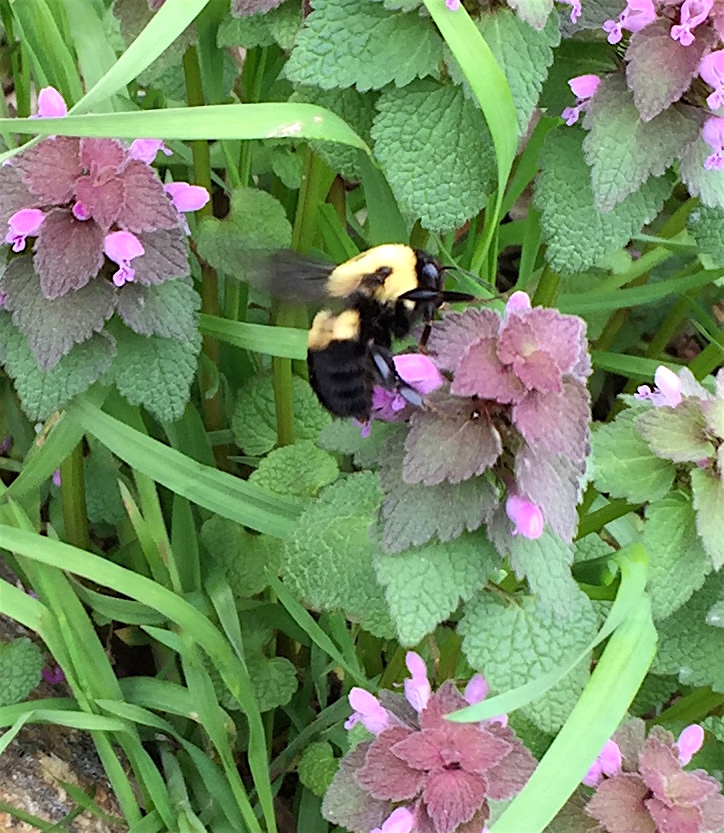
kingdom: Animalia
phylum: Arthropoda
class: Insecta
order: Hymenoptera
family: Apidae
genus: Bombus
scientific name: Bombus griseocollis
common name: Brown-belted bumble bee
